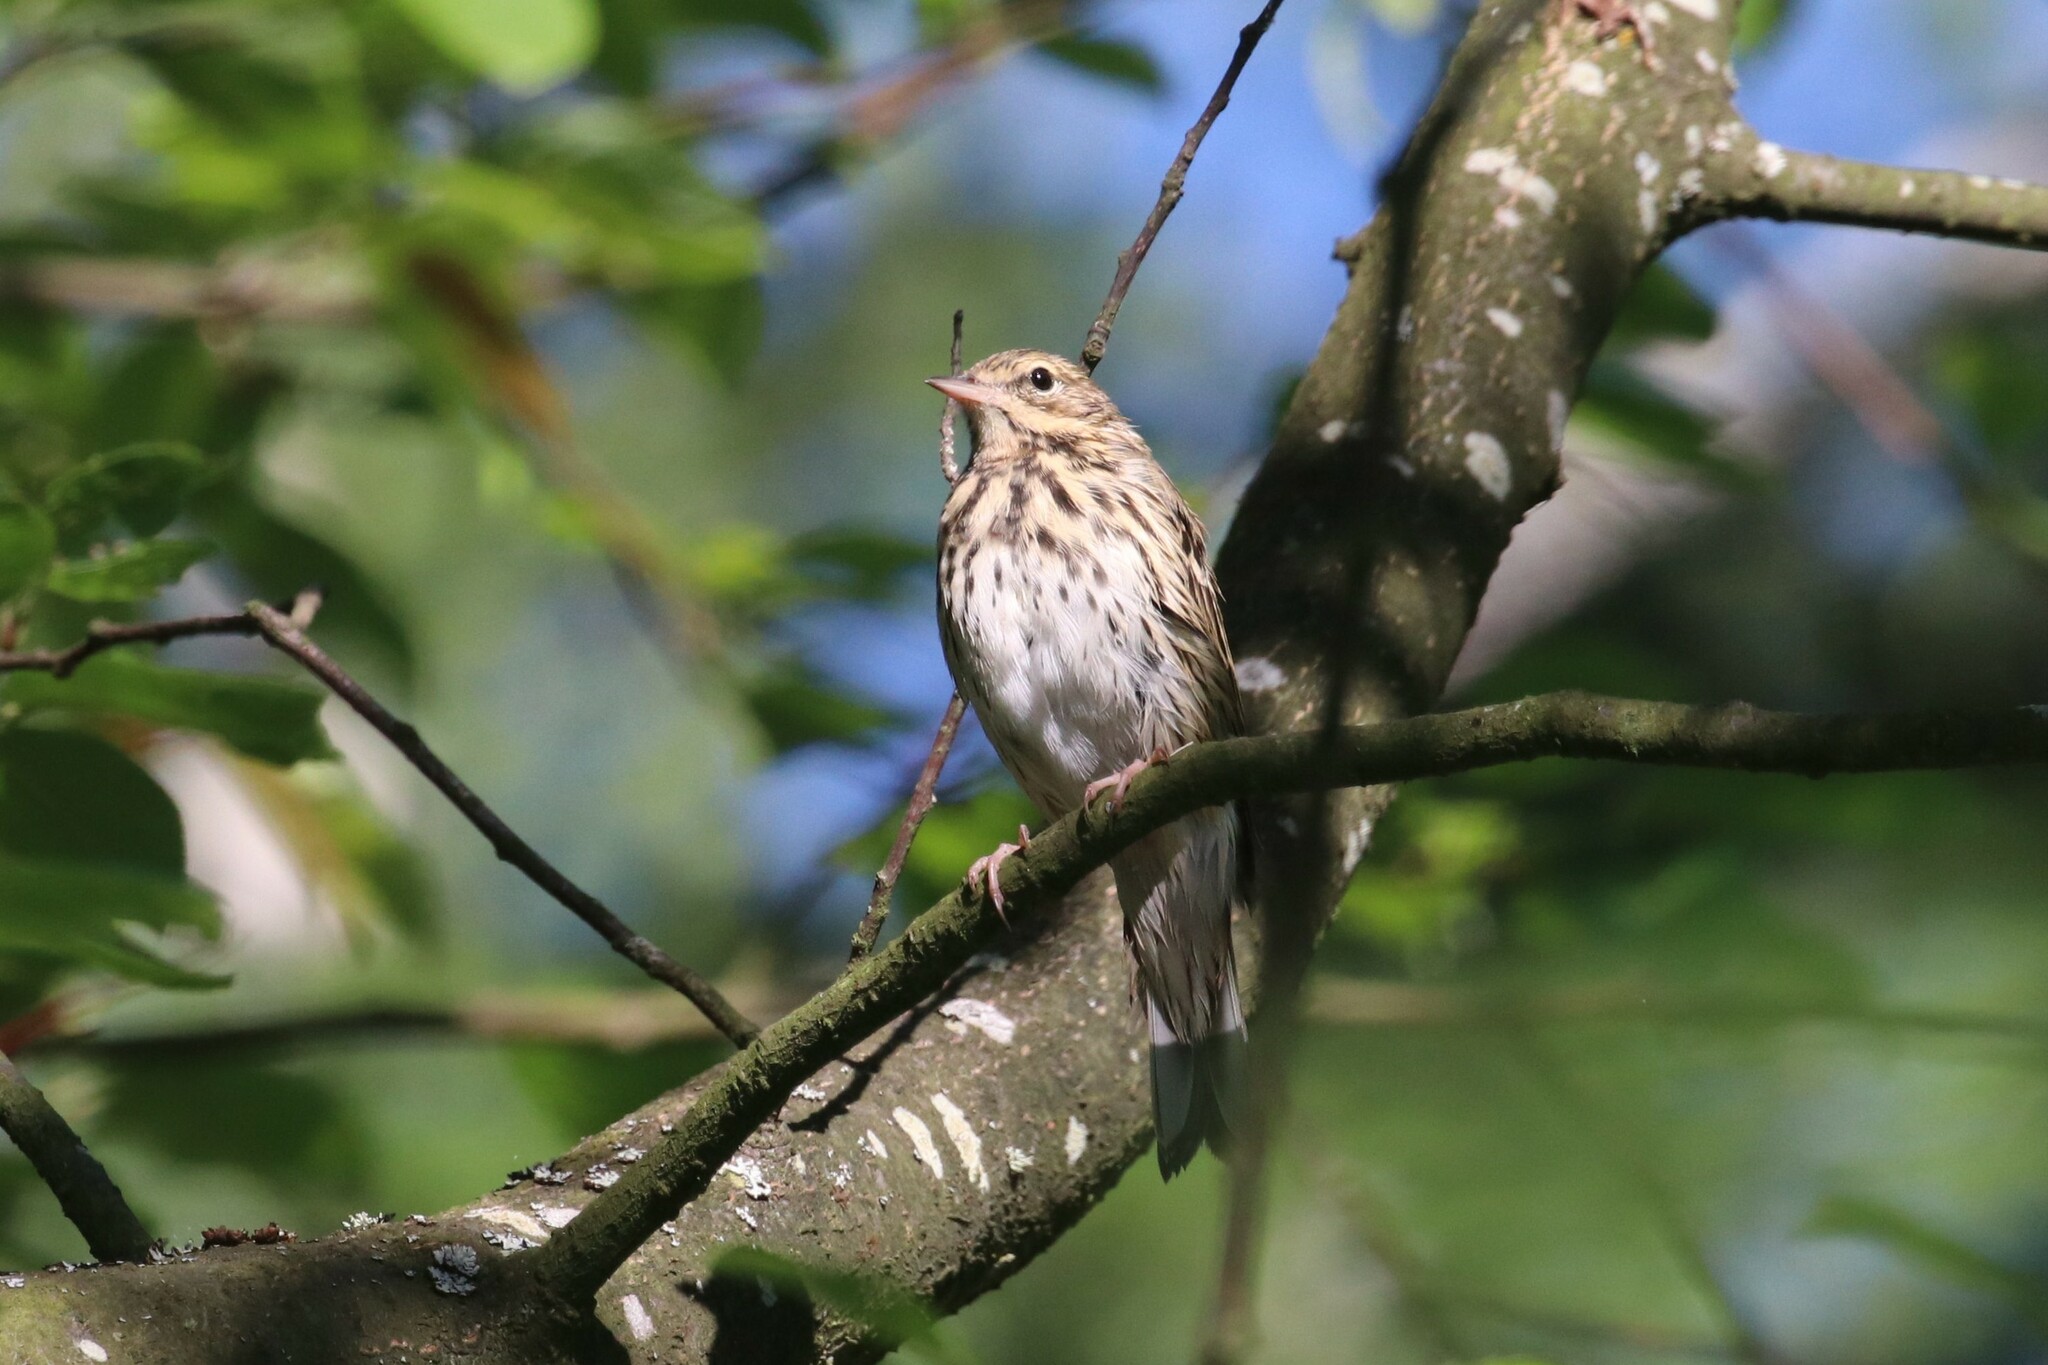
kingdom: Animalia
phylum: Chordata
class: Aves
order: Passeriformes
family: Motacillidae
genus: Anthus
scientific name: Anthus trivialis
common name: Tree pipit
